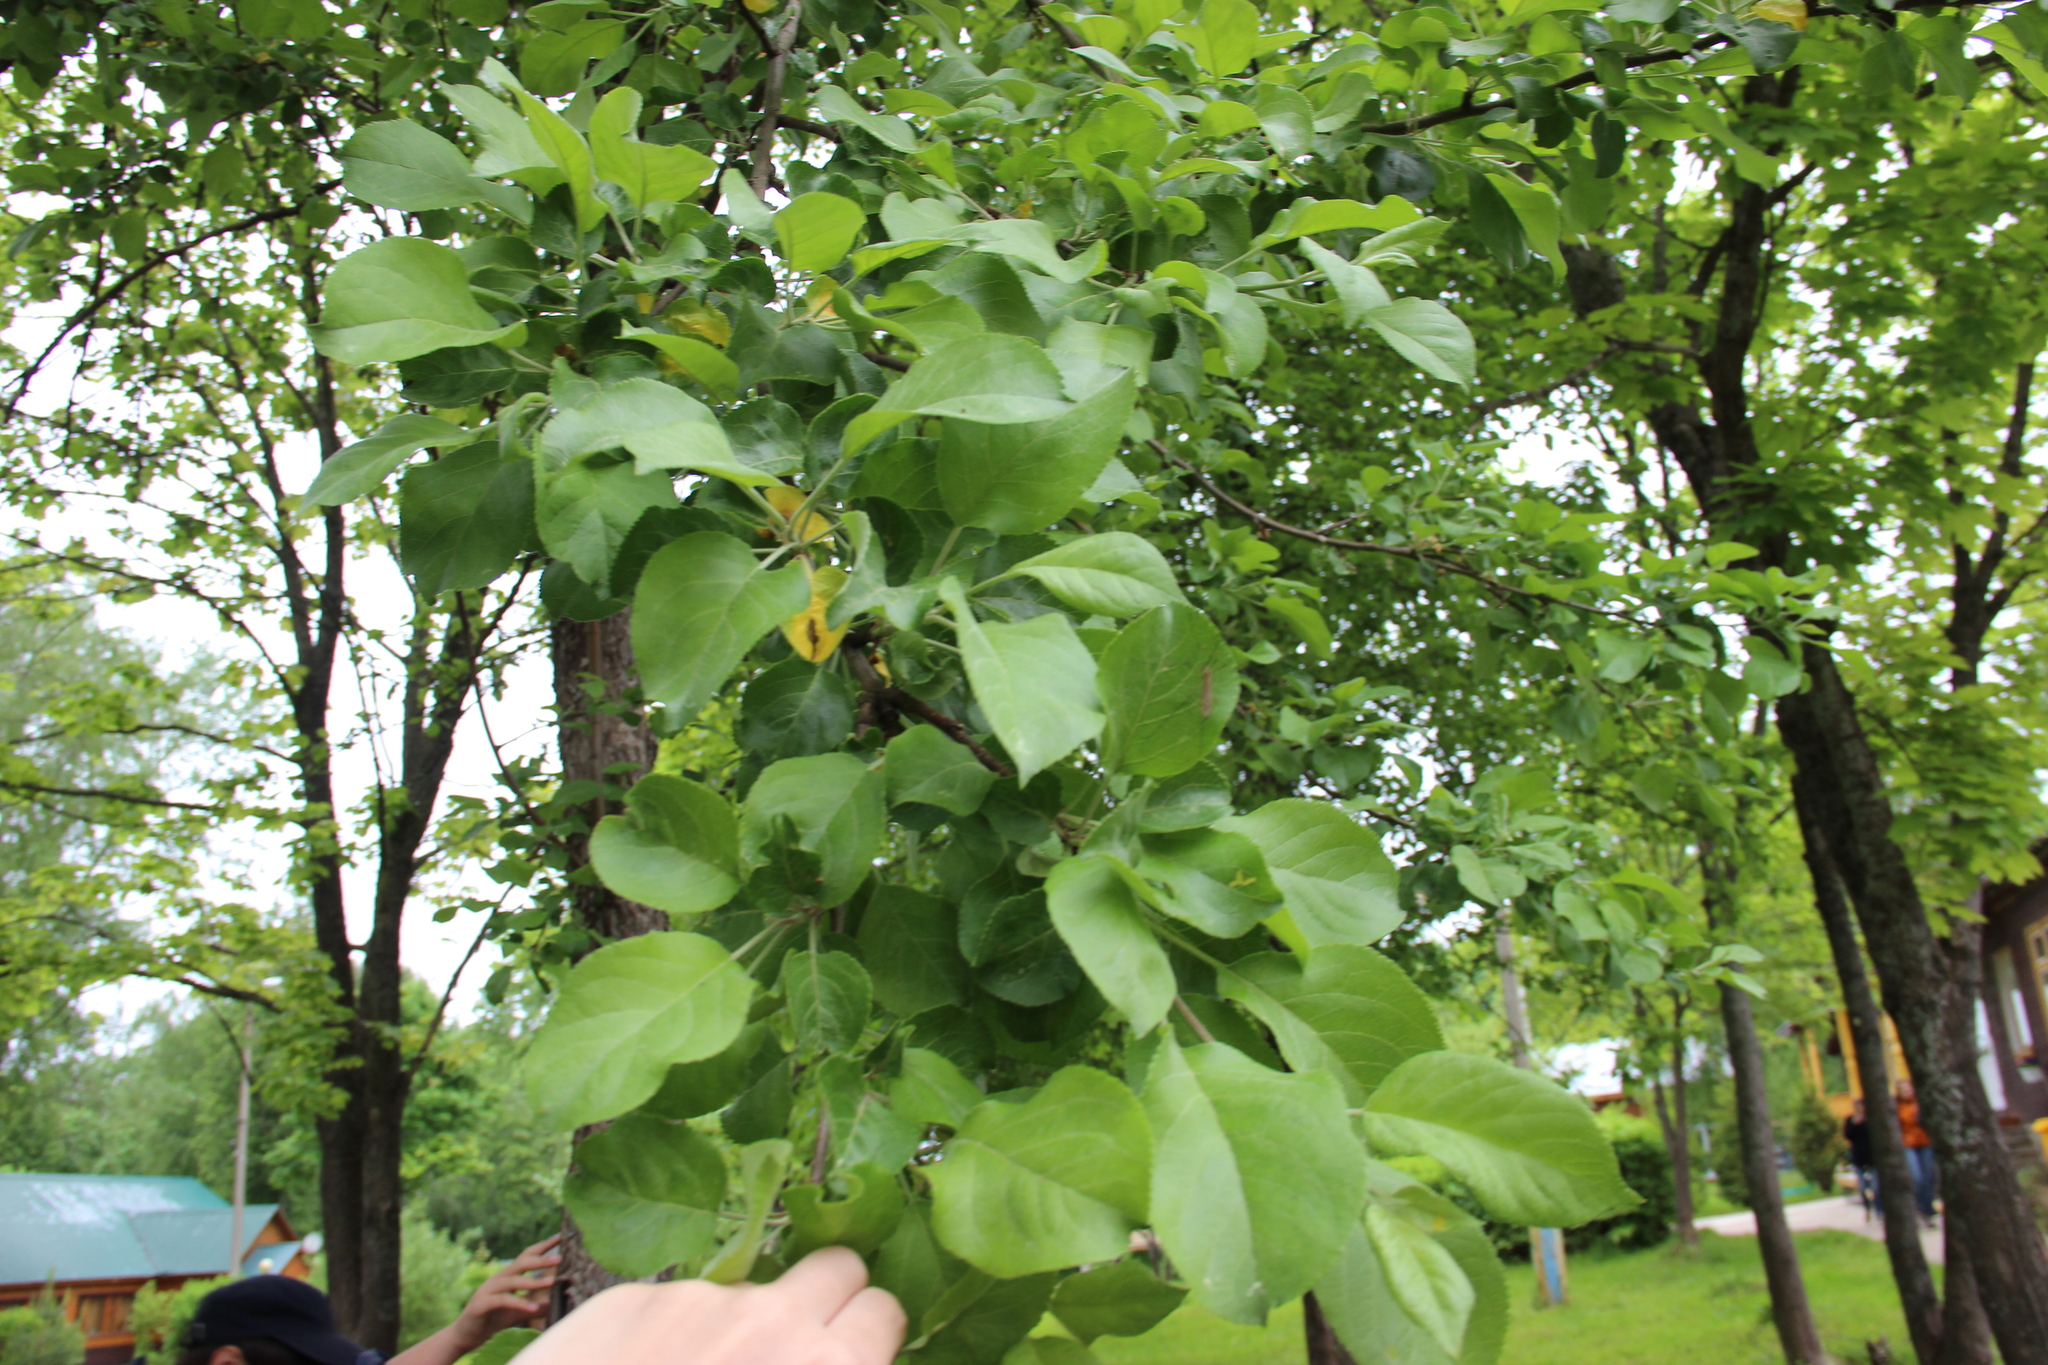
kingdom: Plantae
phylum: Tracheophyta
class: Magnoliopsida
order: Rosales
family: Rosaceae
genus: Malus
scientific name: Malus domestica
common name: Apple
